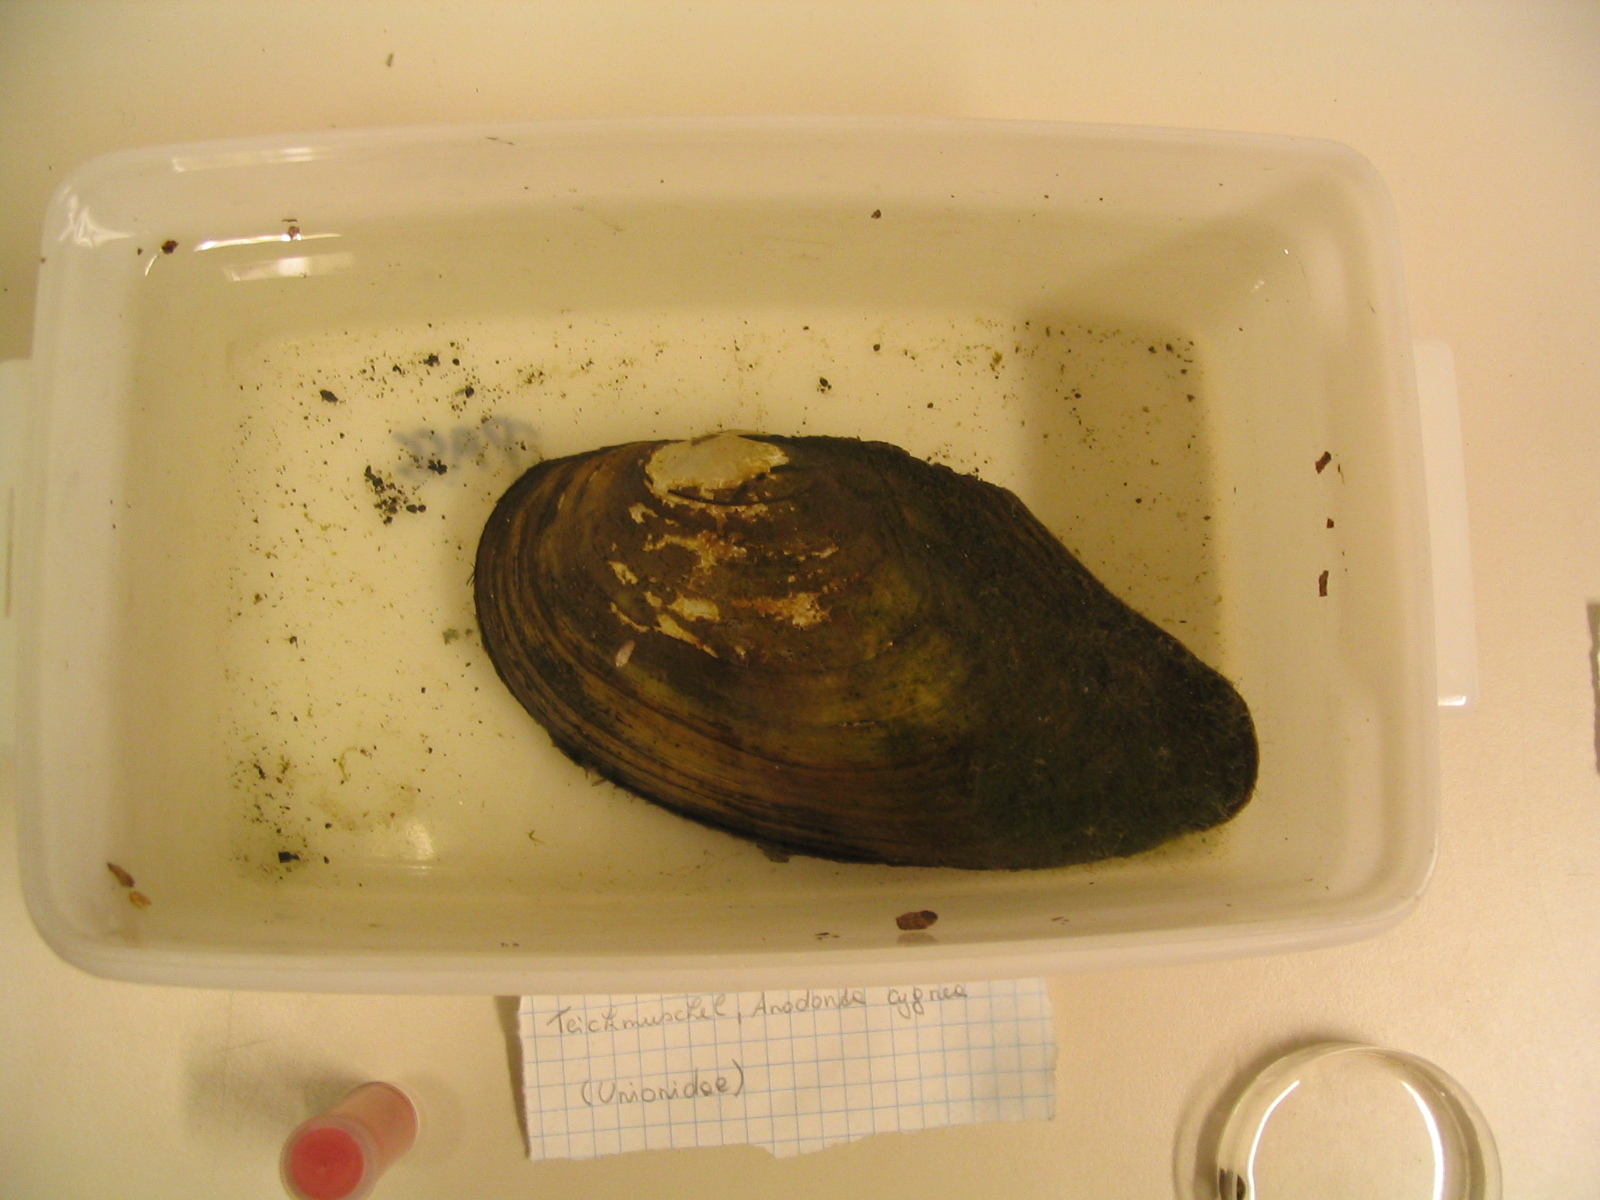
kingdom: Animalia
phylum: Mollusca
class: Bivalvia
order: Unionida
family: Unionidae
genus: Anodonta
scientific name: Anodonta anatina
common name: Duck mussel
